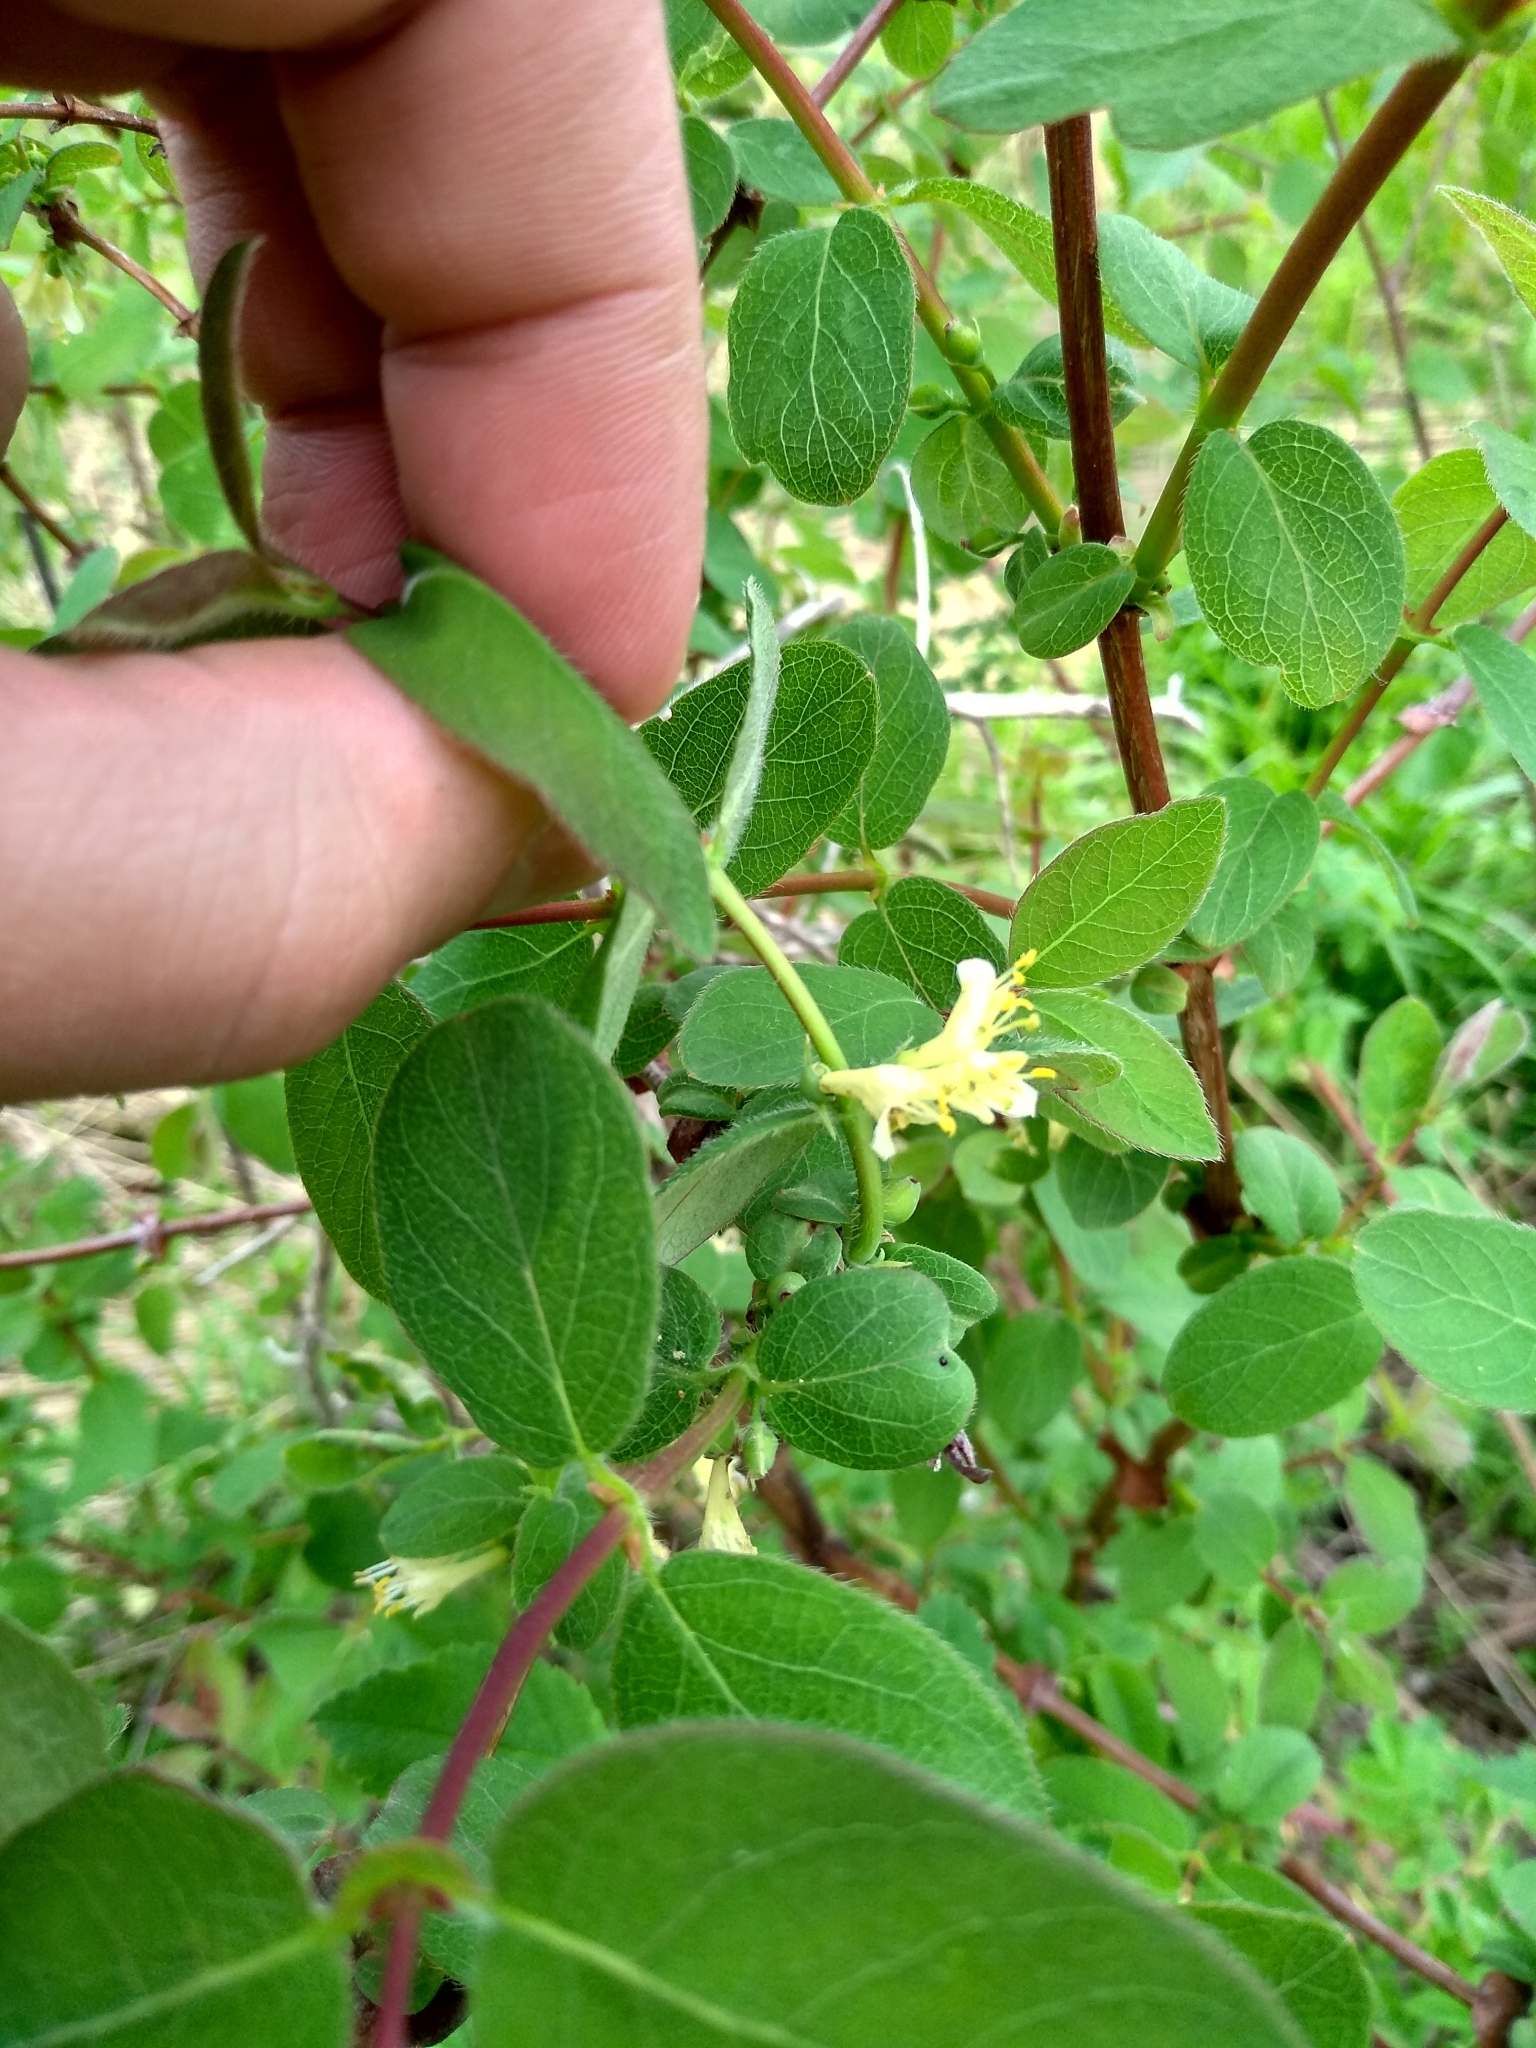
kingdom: Plantae
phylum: Tracheophyta
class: Magnoliopsida
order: Dipsacales
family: Caprifoliaceae
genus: Lonicera
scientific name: Lonicera xylosteum
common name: Fly honeysuckle
